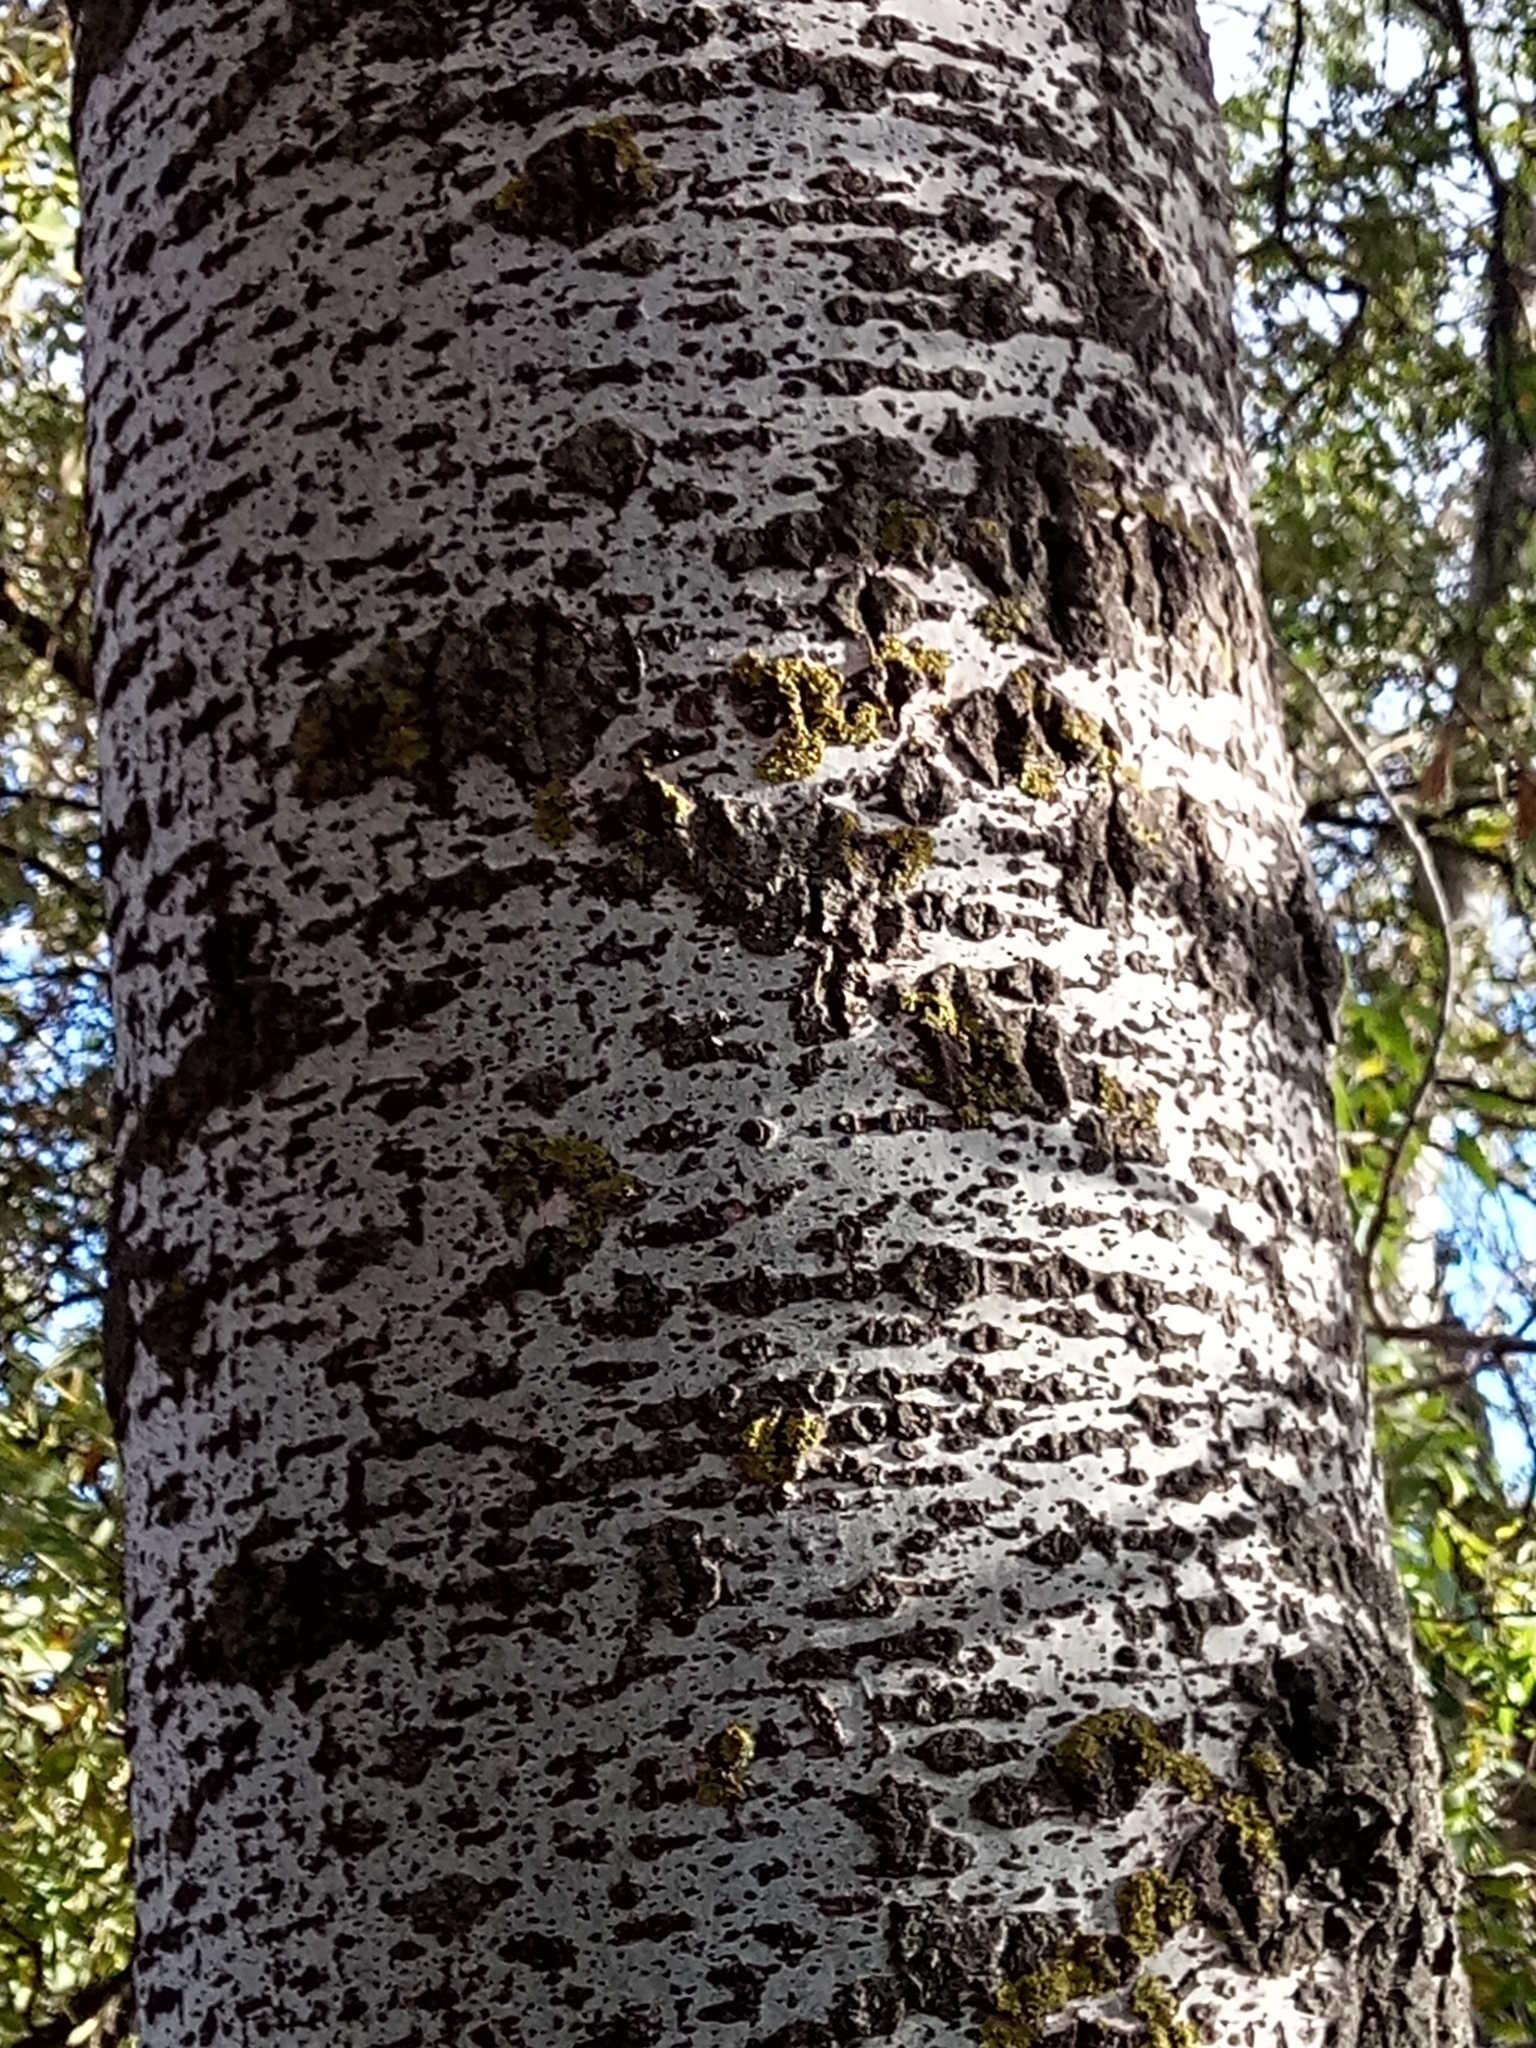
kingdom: Plantae
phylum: Tracheophyta
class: Magnoliopsida
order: Malpighiales
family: Salicaceae
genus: Populus
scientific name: Populus alba
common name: White poplar
